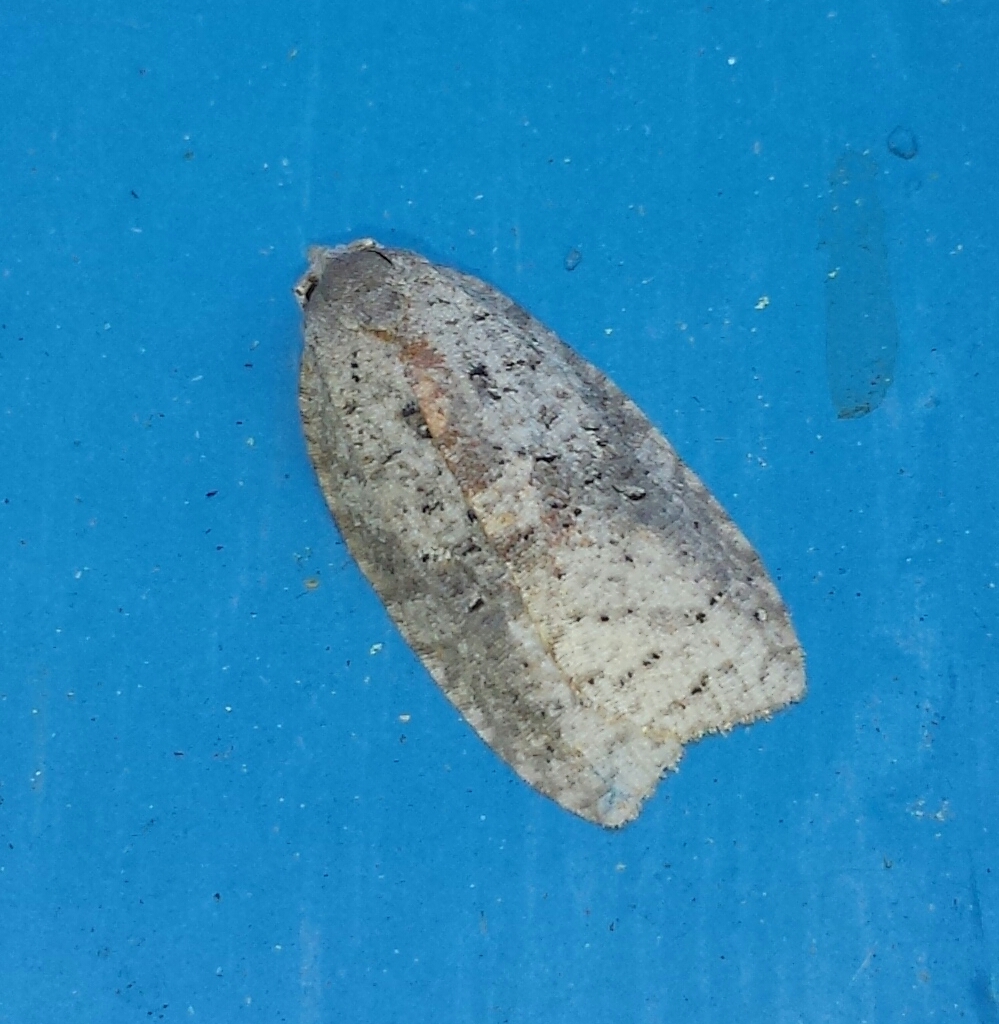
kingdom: Animalia
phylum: Arthropoda
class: Insecta
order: Lepidoptera
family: Tortricidae
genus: Amorbia
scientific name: Amorbia humerosana
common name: White-lined leafroller moth
